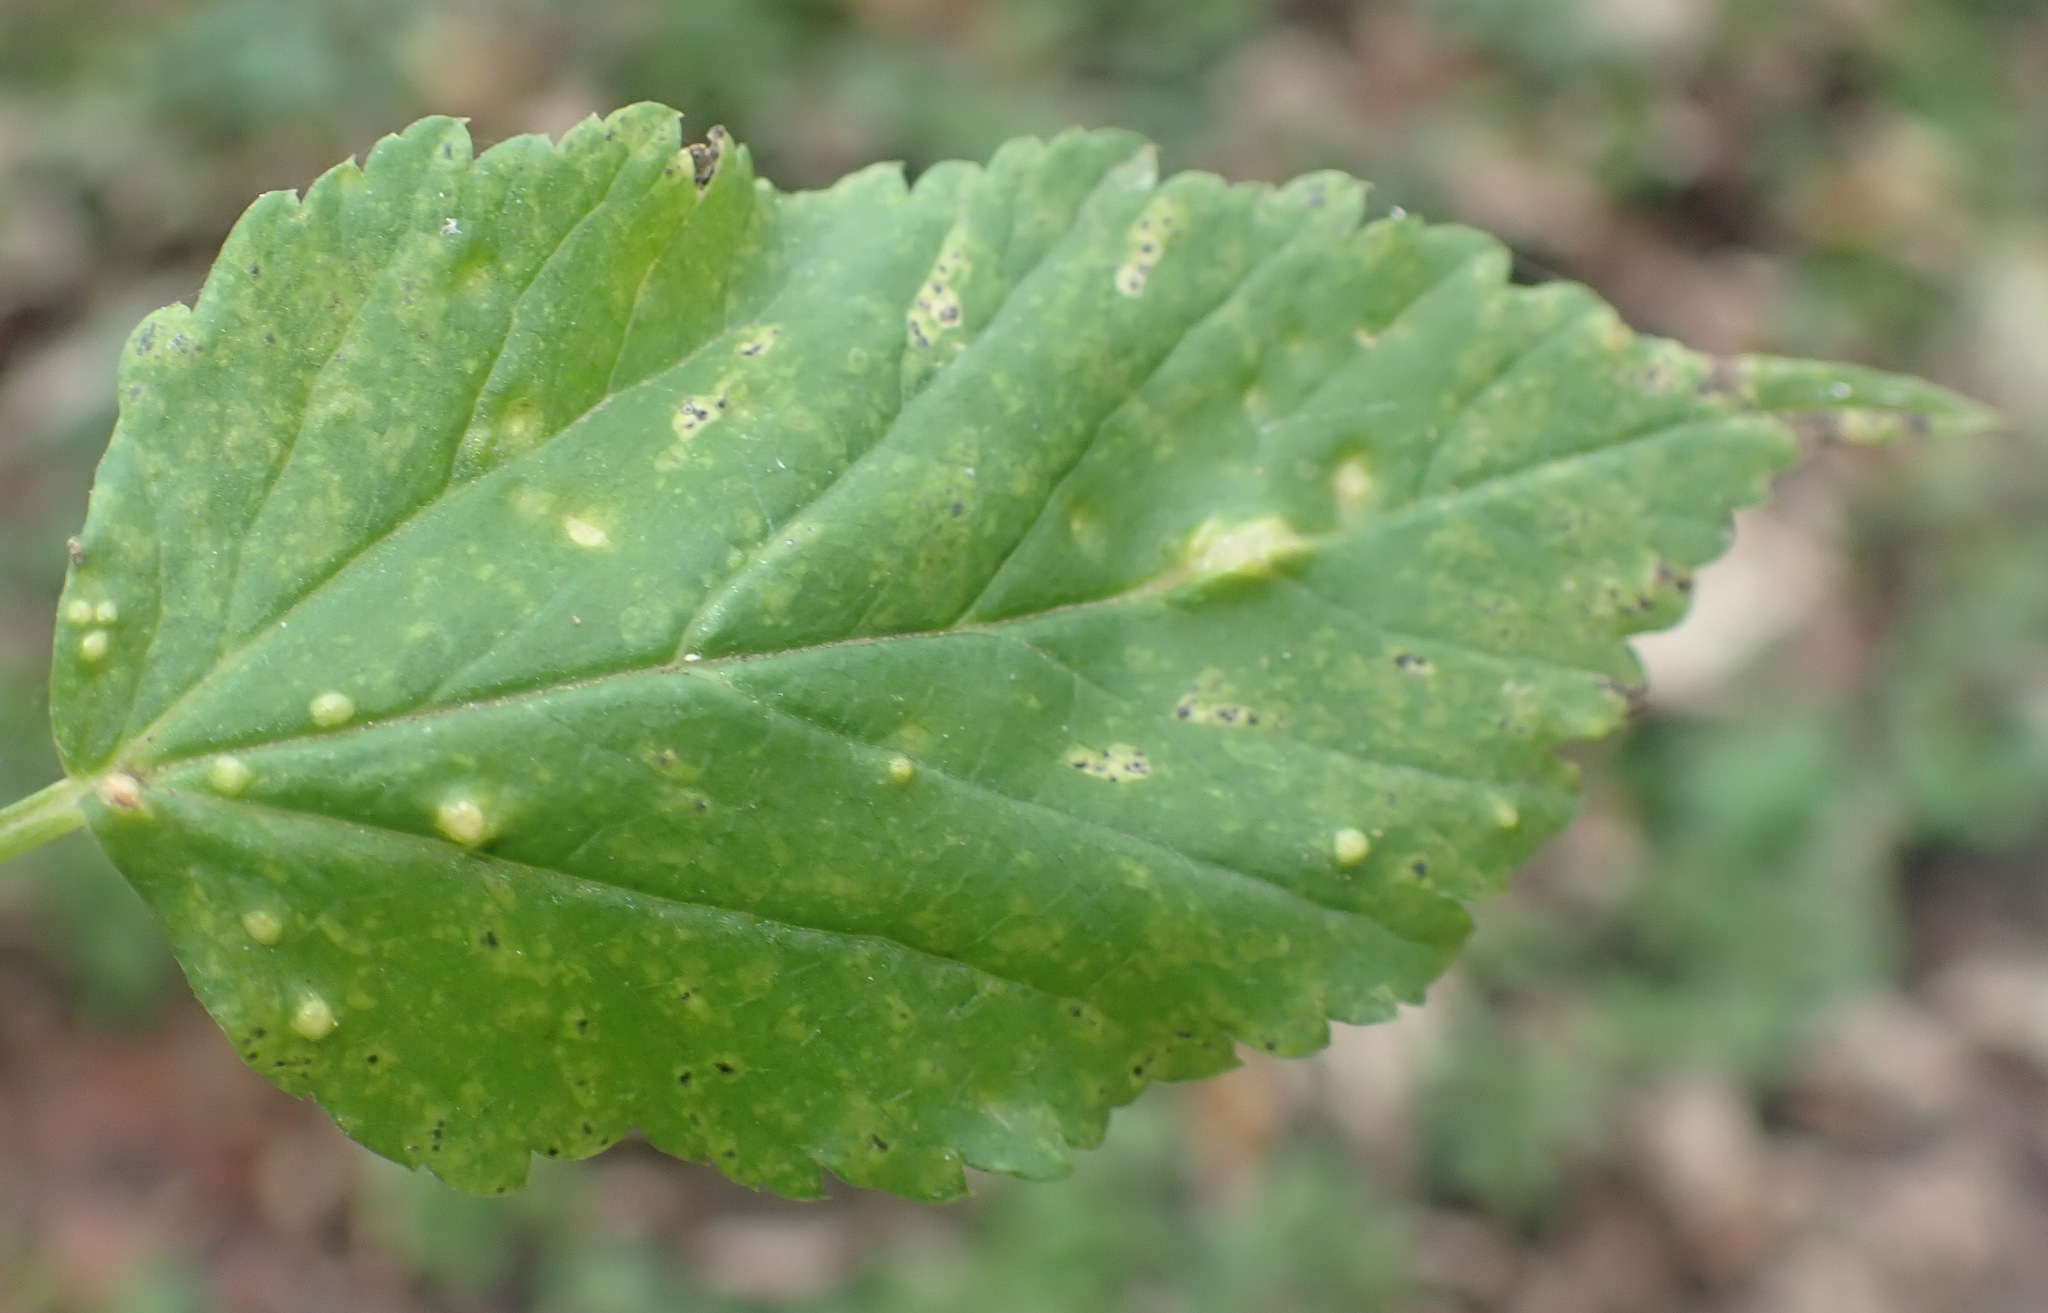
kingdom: Fungi
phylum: Ascomycota
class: Taphrinomycetes
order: Taphrinales
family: Taphrinaceae
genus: Protomyces
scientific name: Protomyces macrosporus
